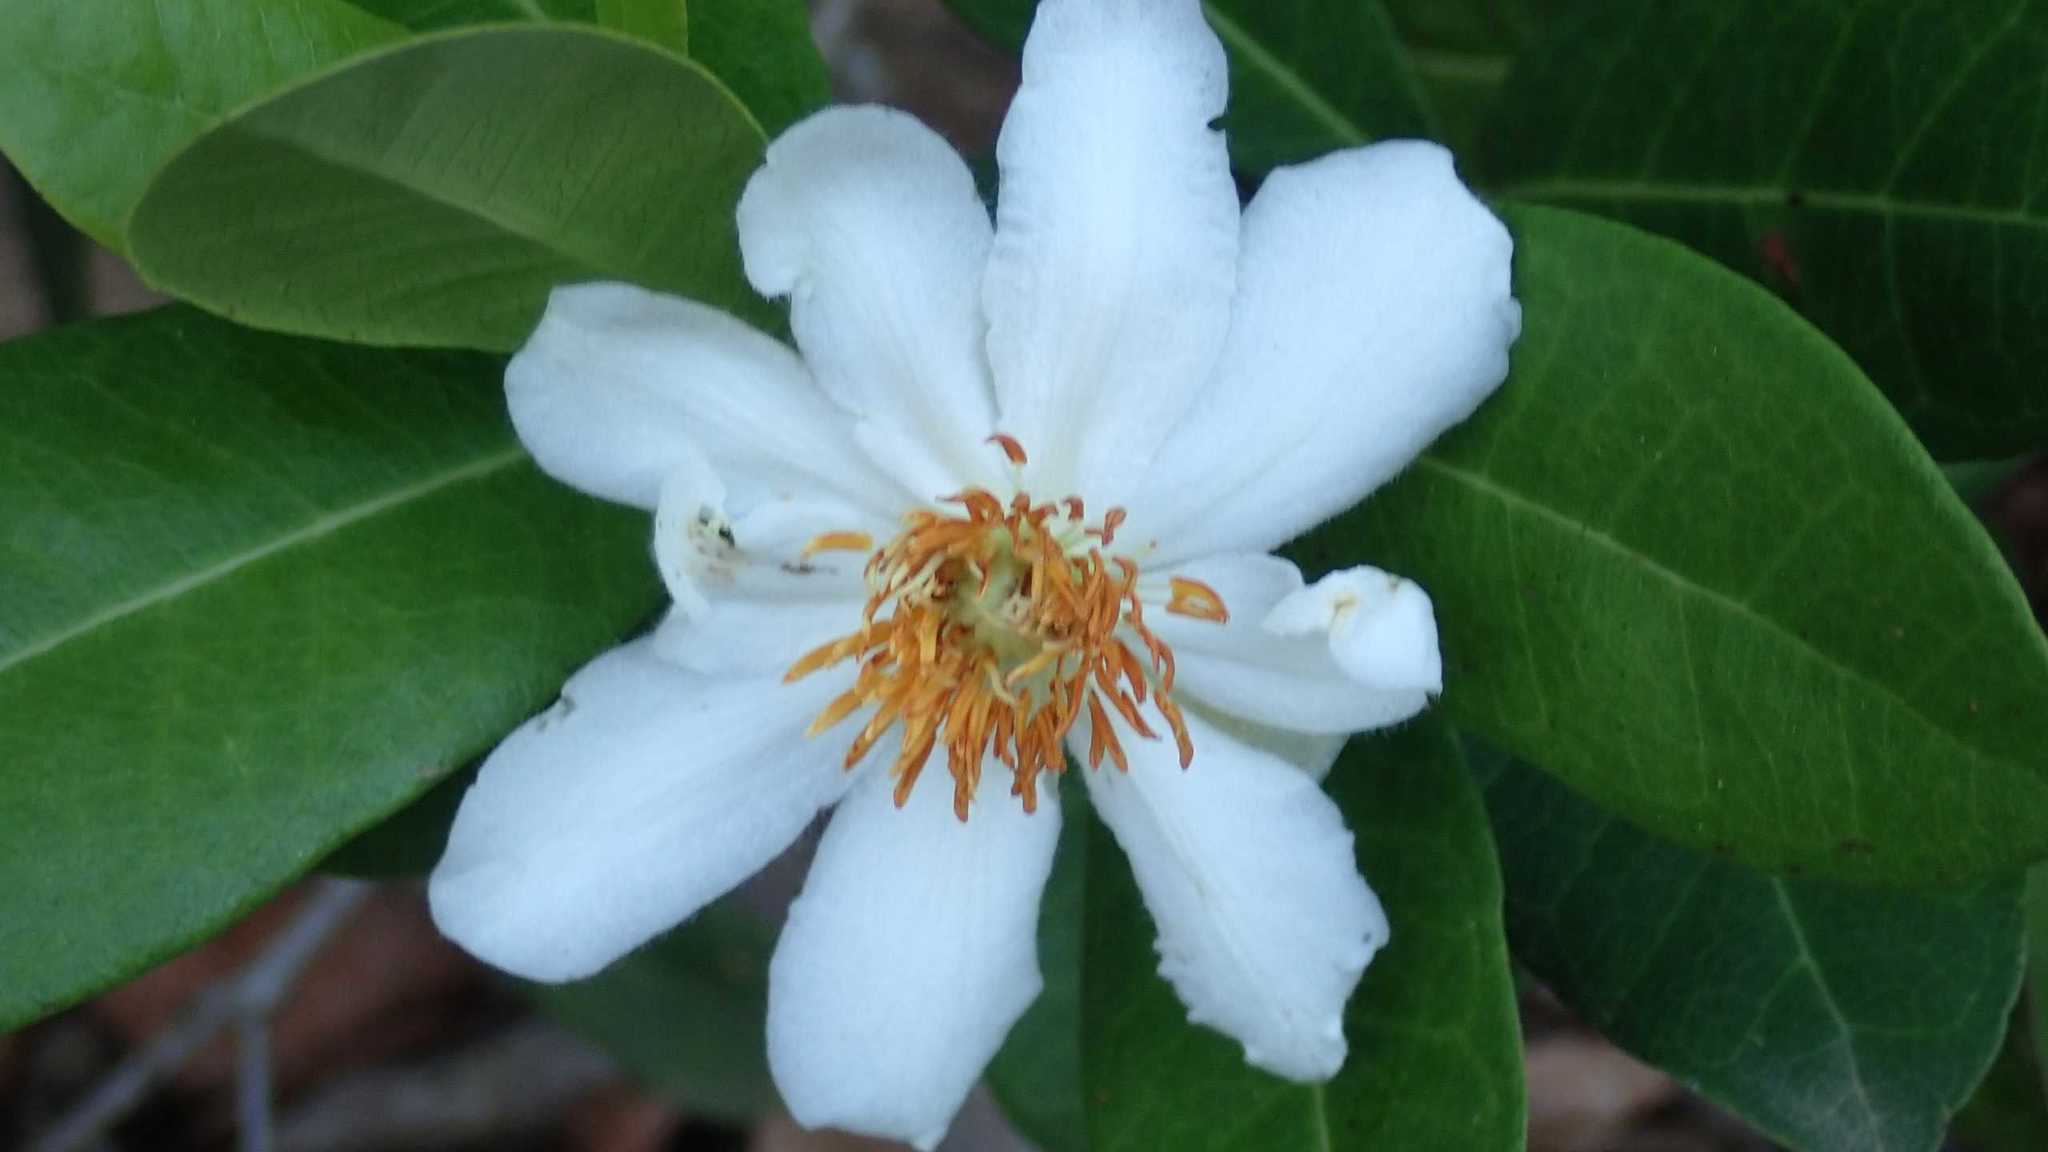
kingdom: Plantae
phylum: Tracheophyta
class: Magnoliopsida
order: Malpighiales
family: Achariaceae
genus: Xylotheca
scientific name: Xylotheca kraussiana
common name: African dog rose
